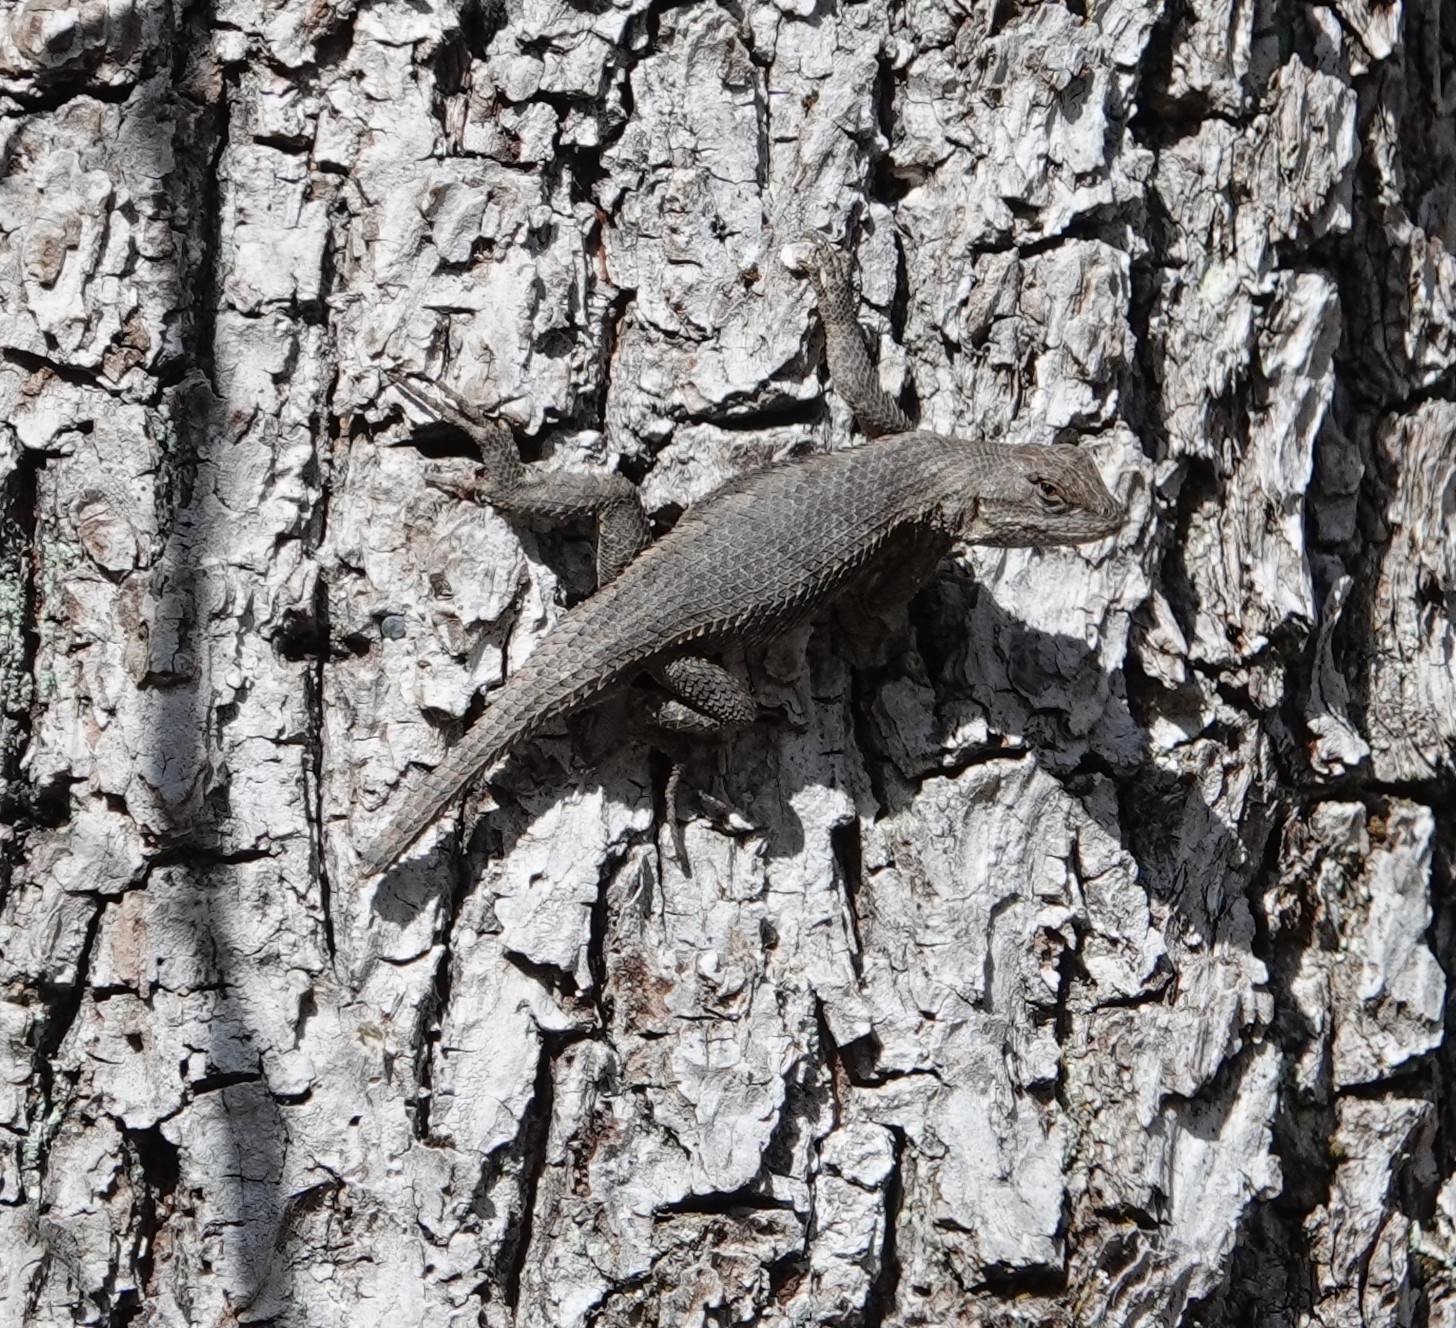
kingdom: Animalia
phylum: Chordata
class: Squamata
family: Phrynosomatidae
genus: Sceloporus
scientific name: Sceloporus consobrinus
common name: Southern prairie lizard
